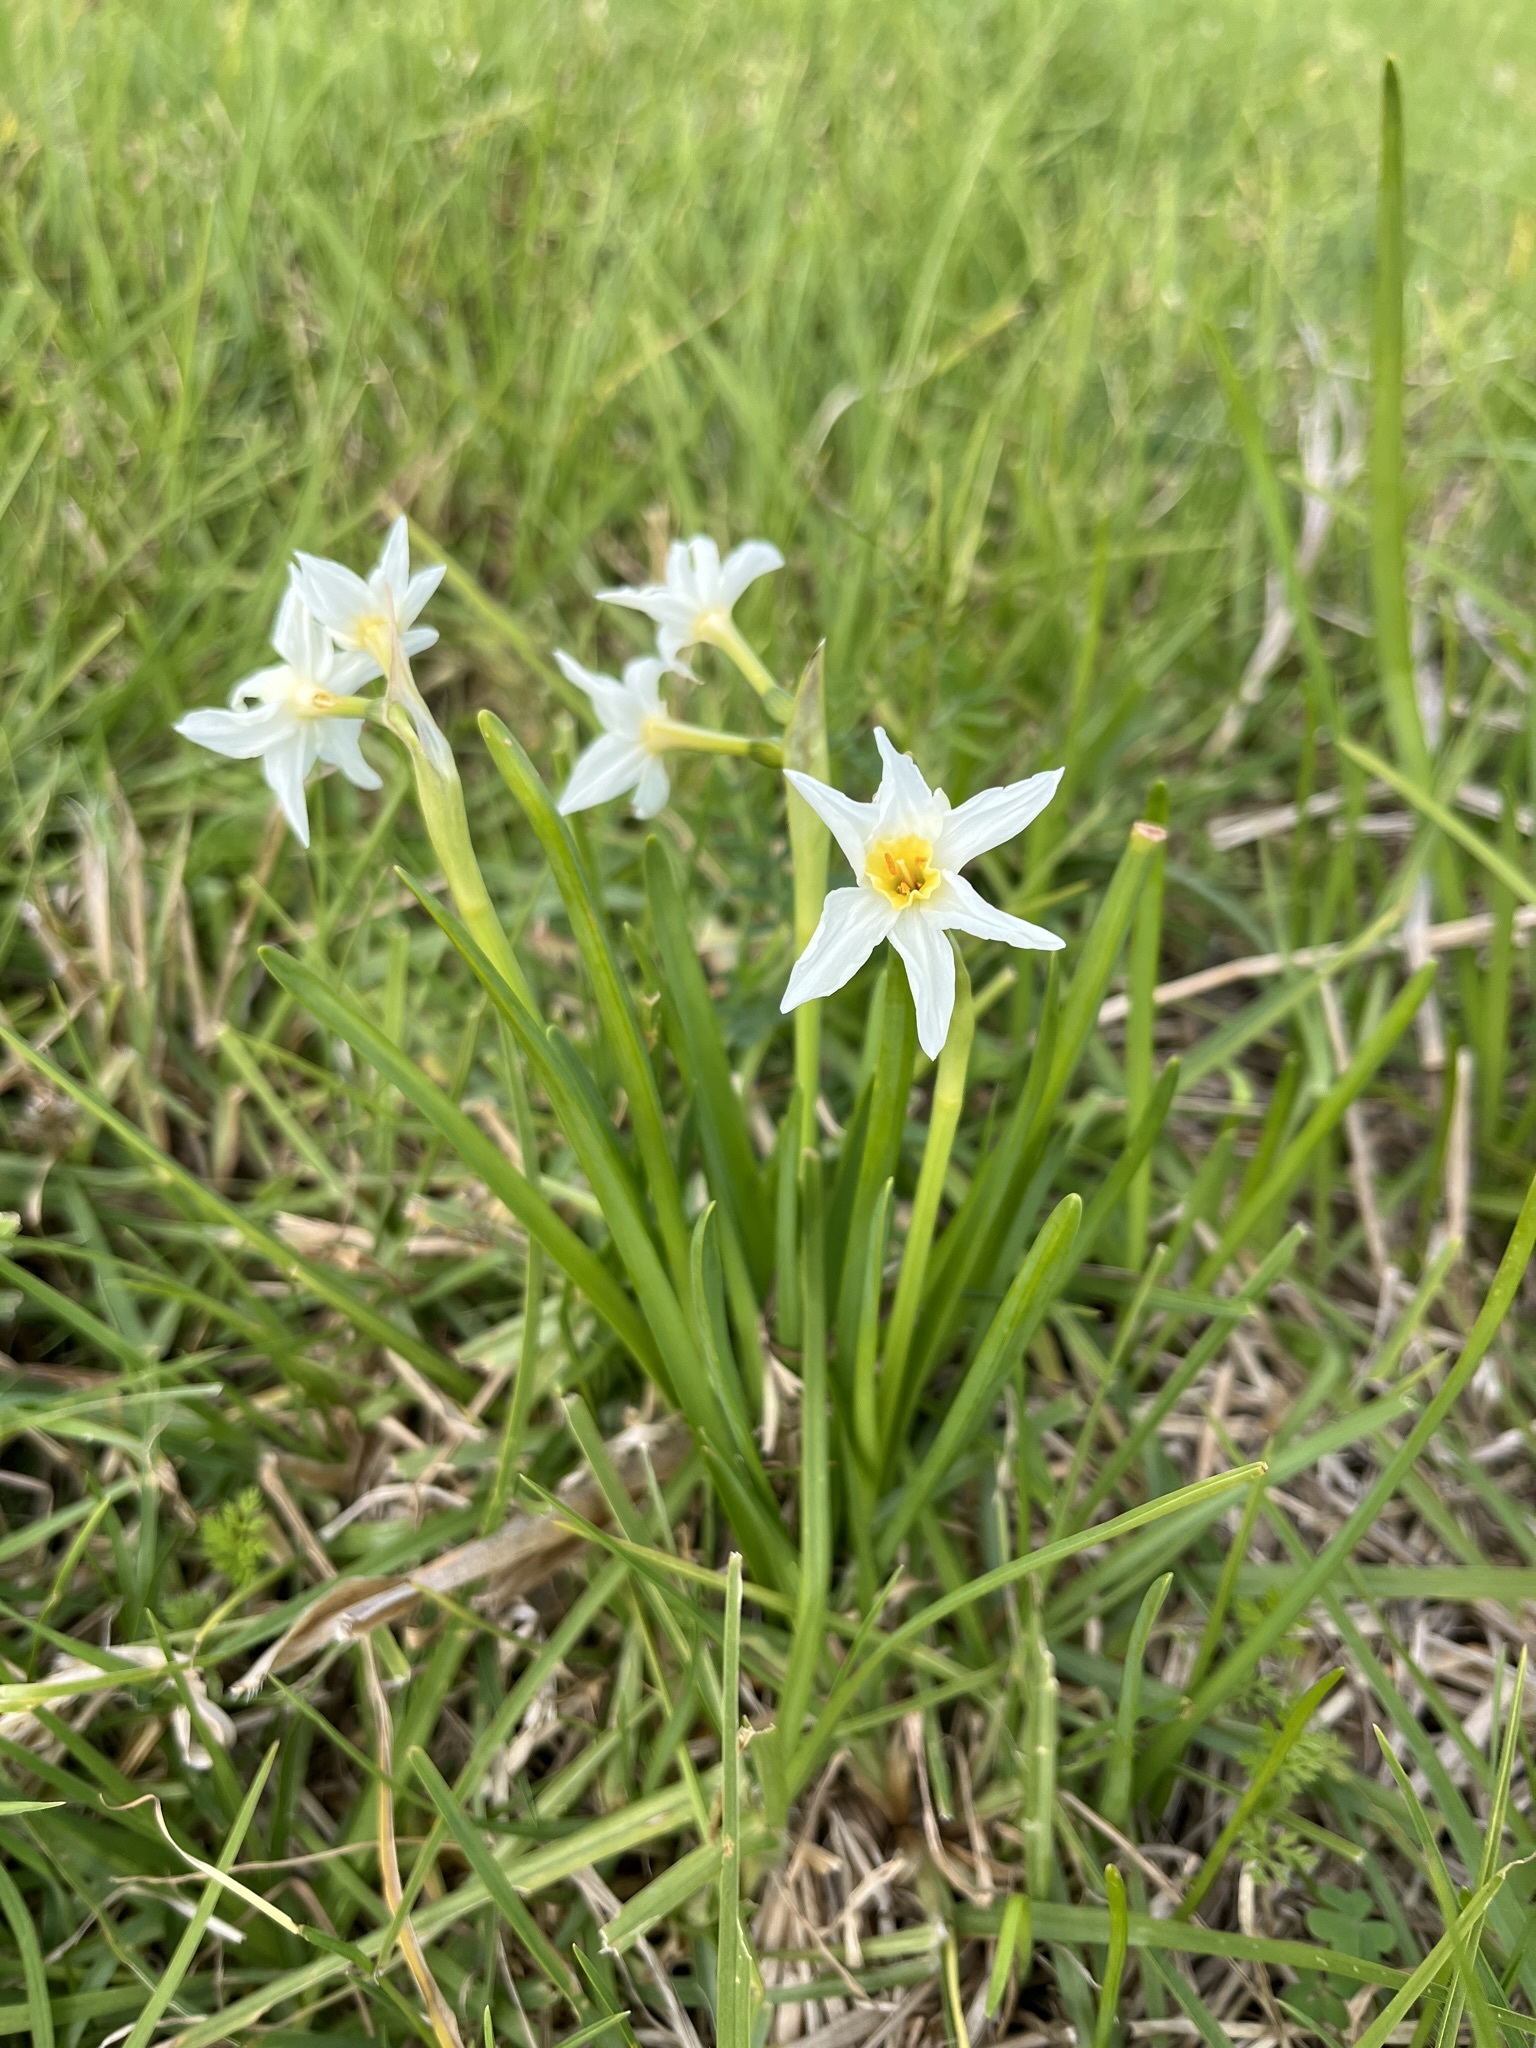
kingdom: Plantae
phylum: Tracheophyta
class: Liliopsida
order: Asparagales
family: Amaryllidaceae
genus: Narcissus
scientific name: Narcissus tazetta
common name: Bunch-flowered daffodil
